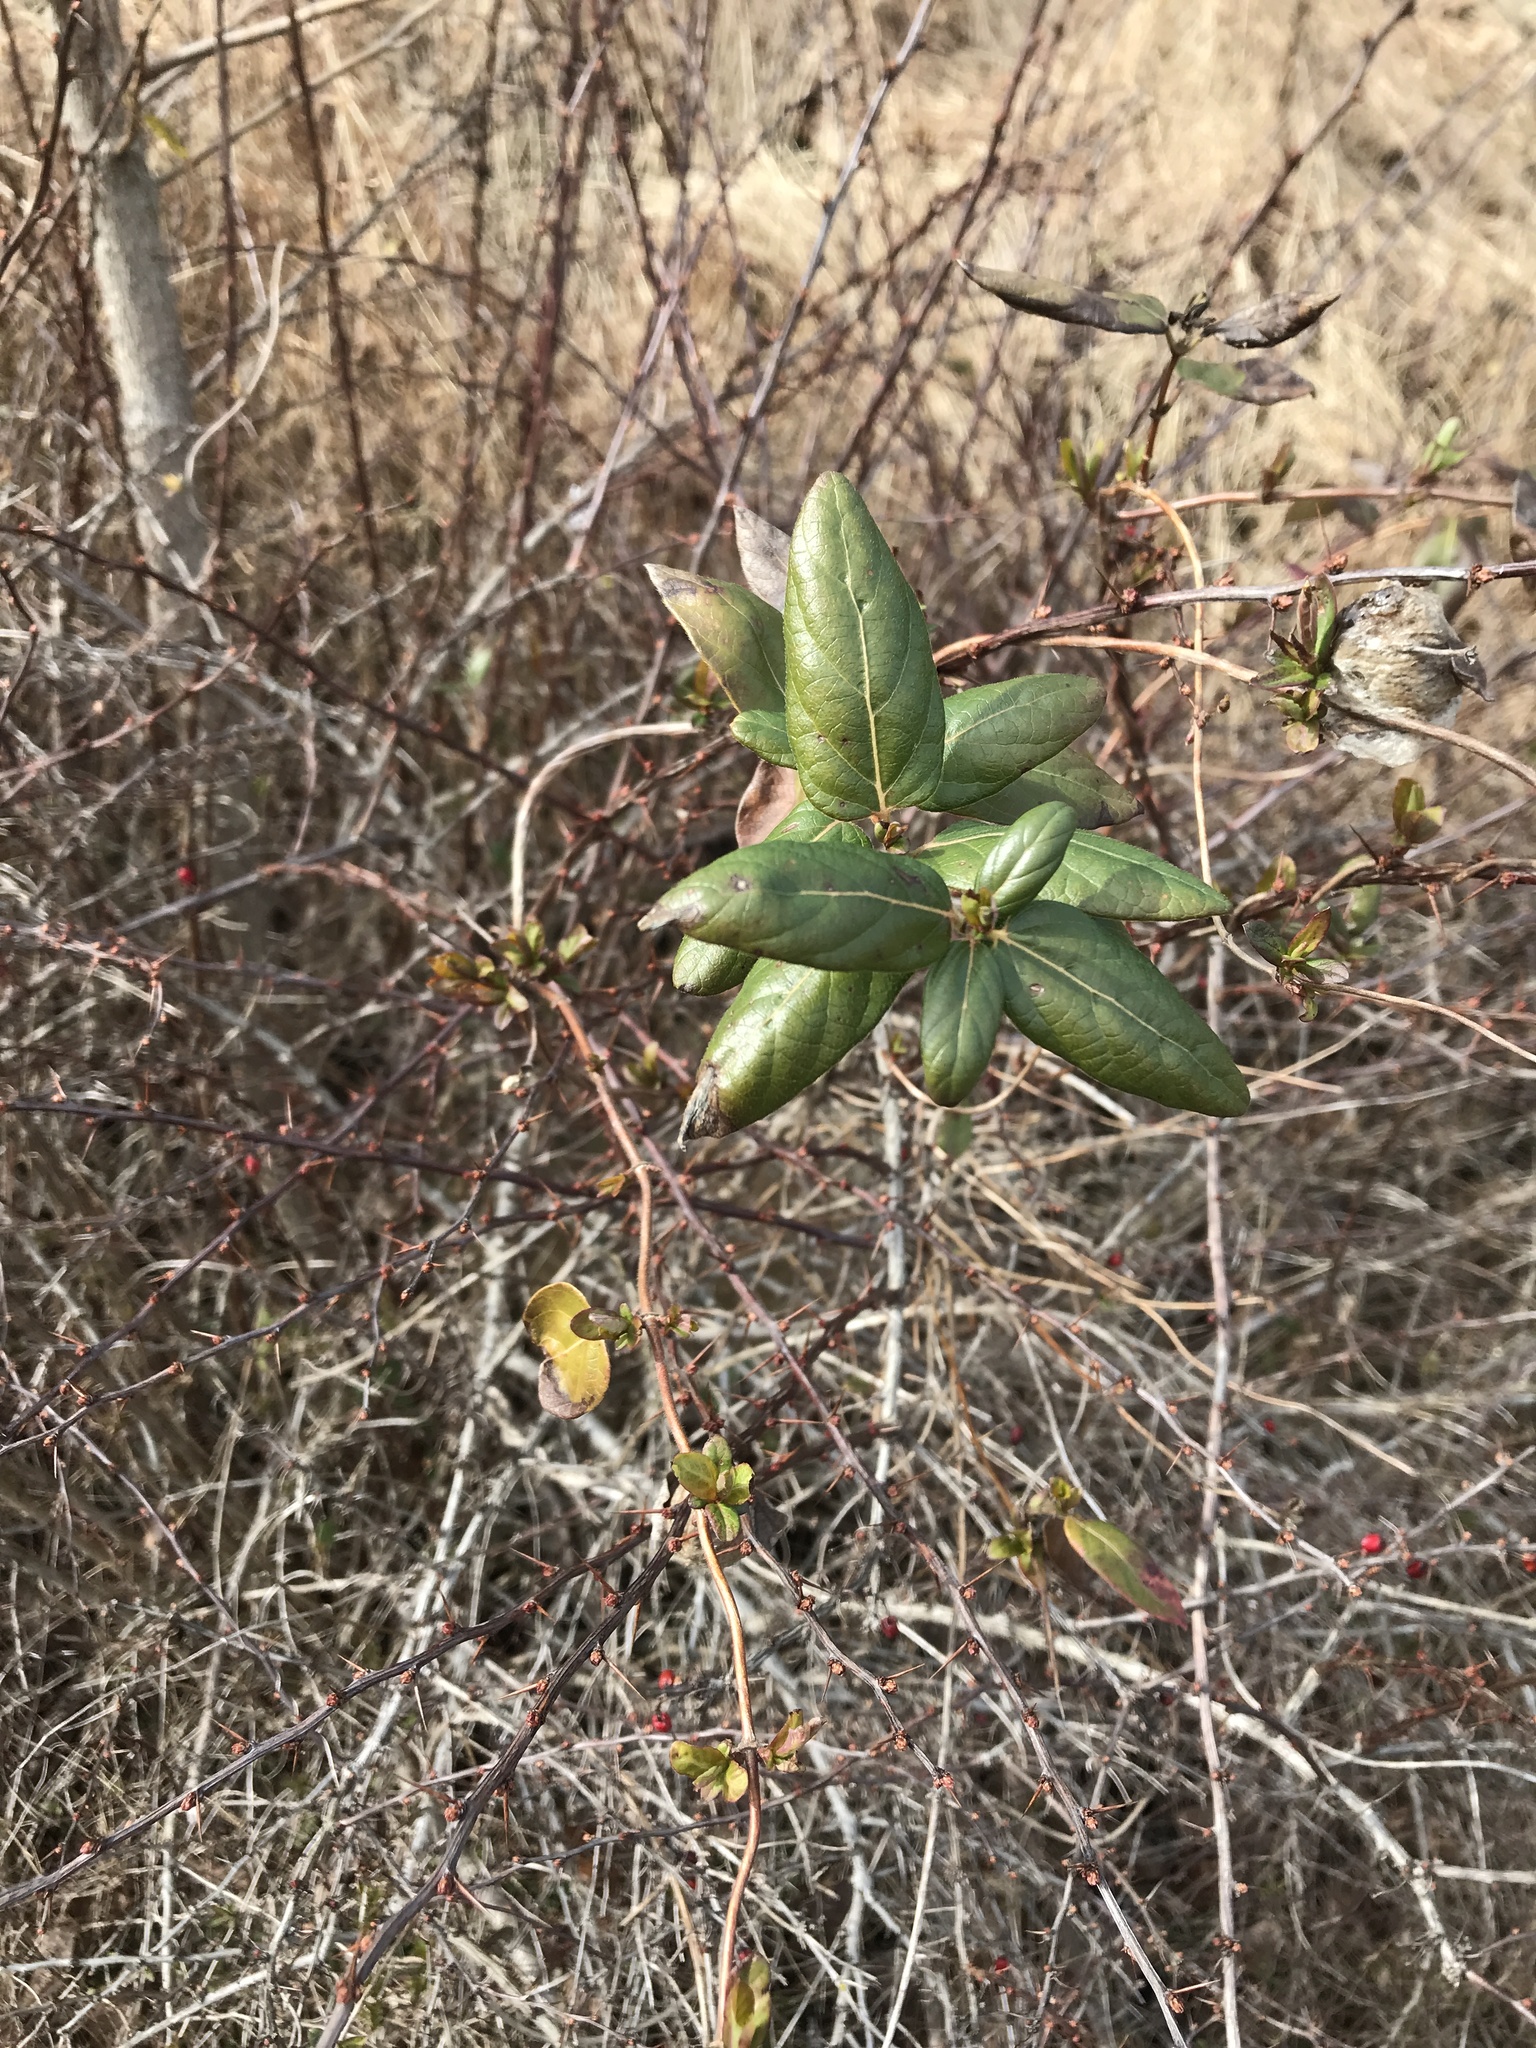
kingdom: Plantae
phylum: Tracheophyta
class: Magnoliopsida
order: Dipsacales
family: Caprifoliaceae
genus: Lonicera
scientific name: Lonicera japonica
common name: Japanese honeysuckle
